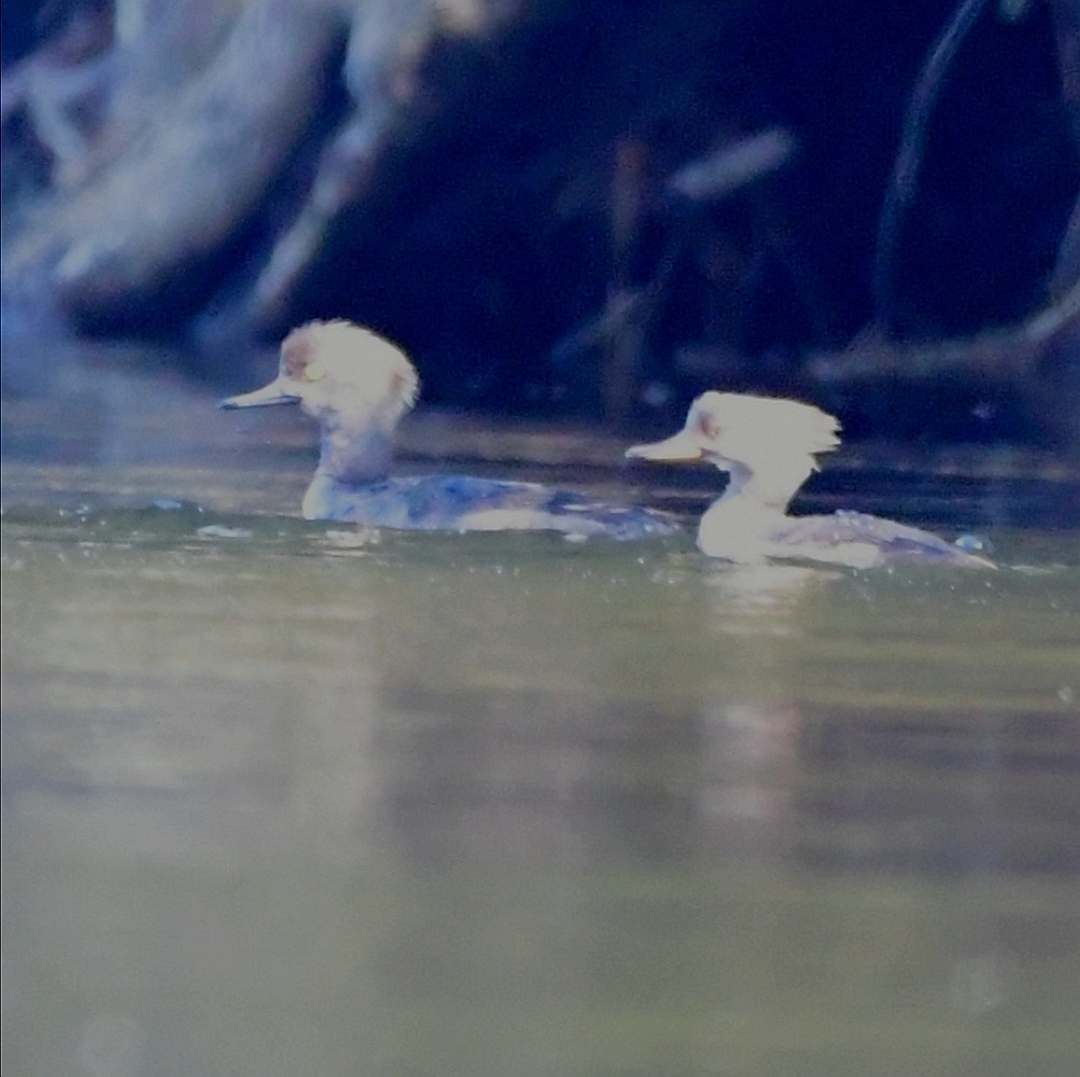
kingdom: Animalia
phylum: Chordata
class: Aves
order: Anseriformes
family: Anatidae
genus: Lophodytes
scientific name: Lophodytes cucullatus
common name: Hooded merganser
